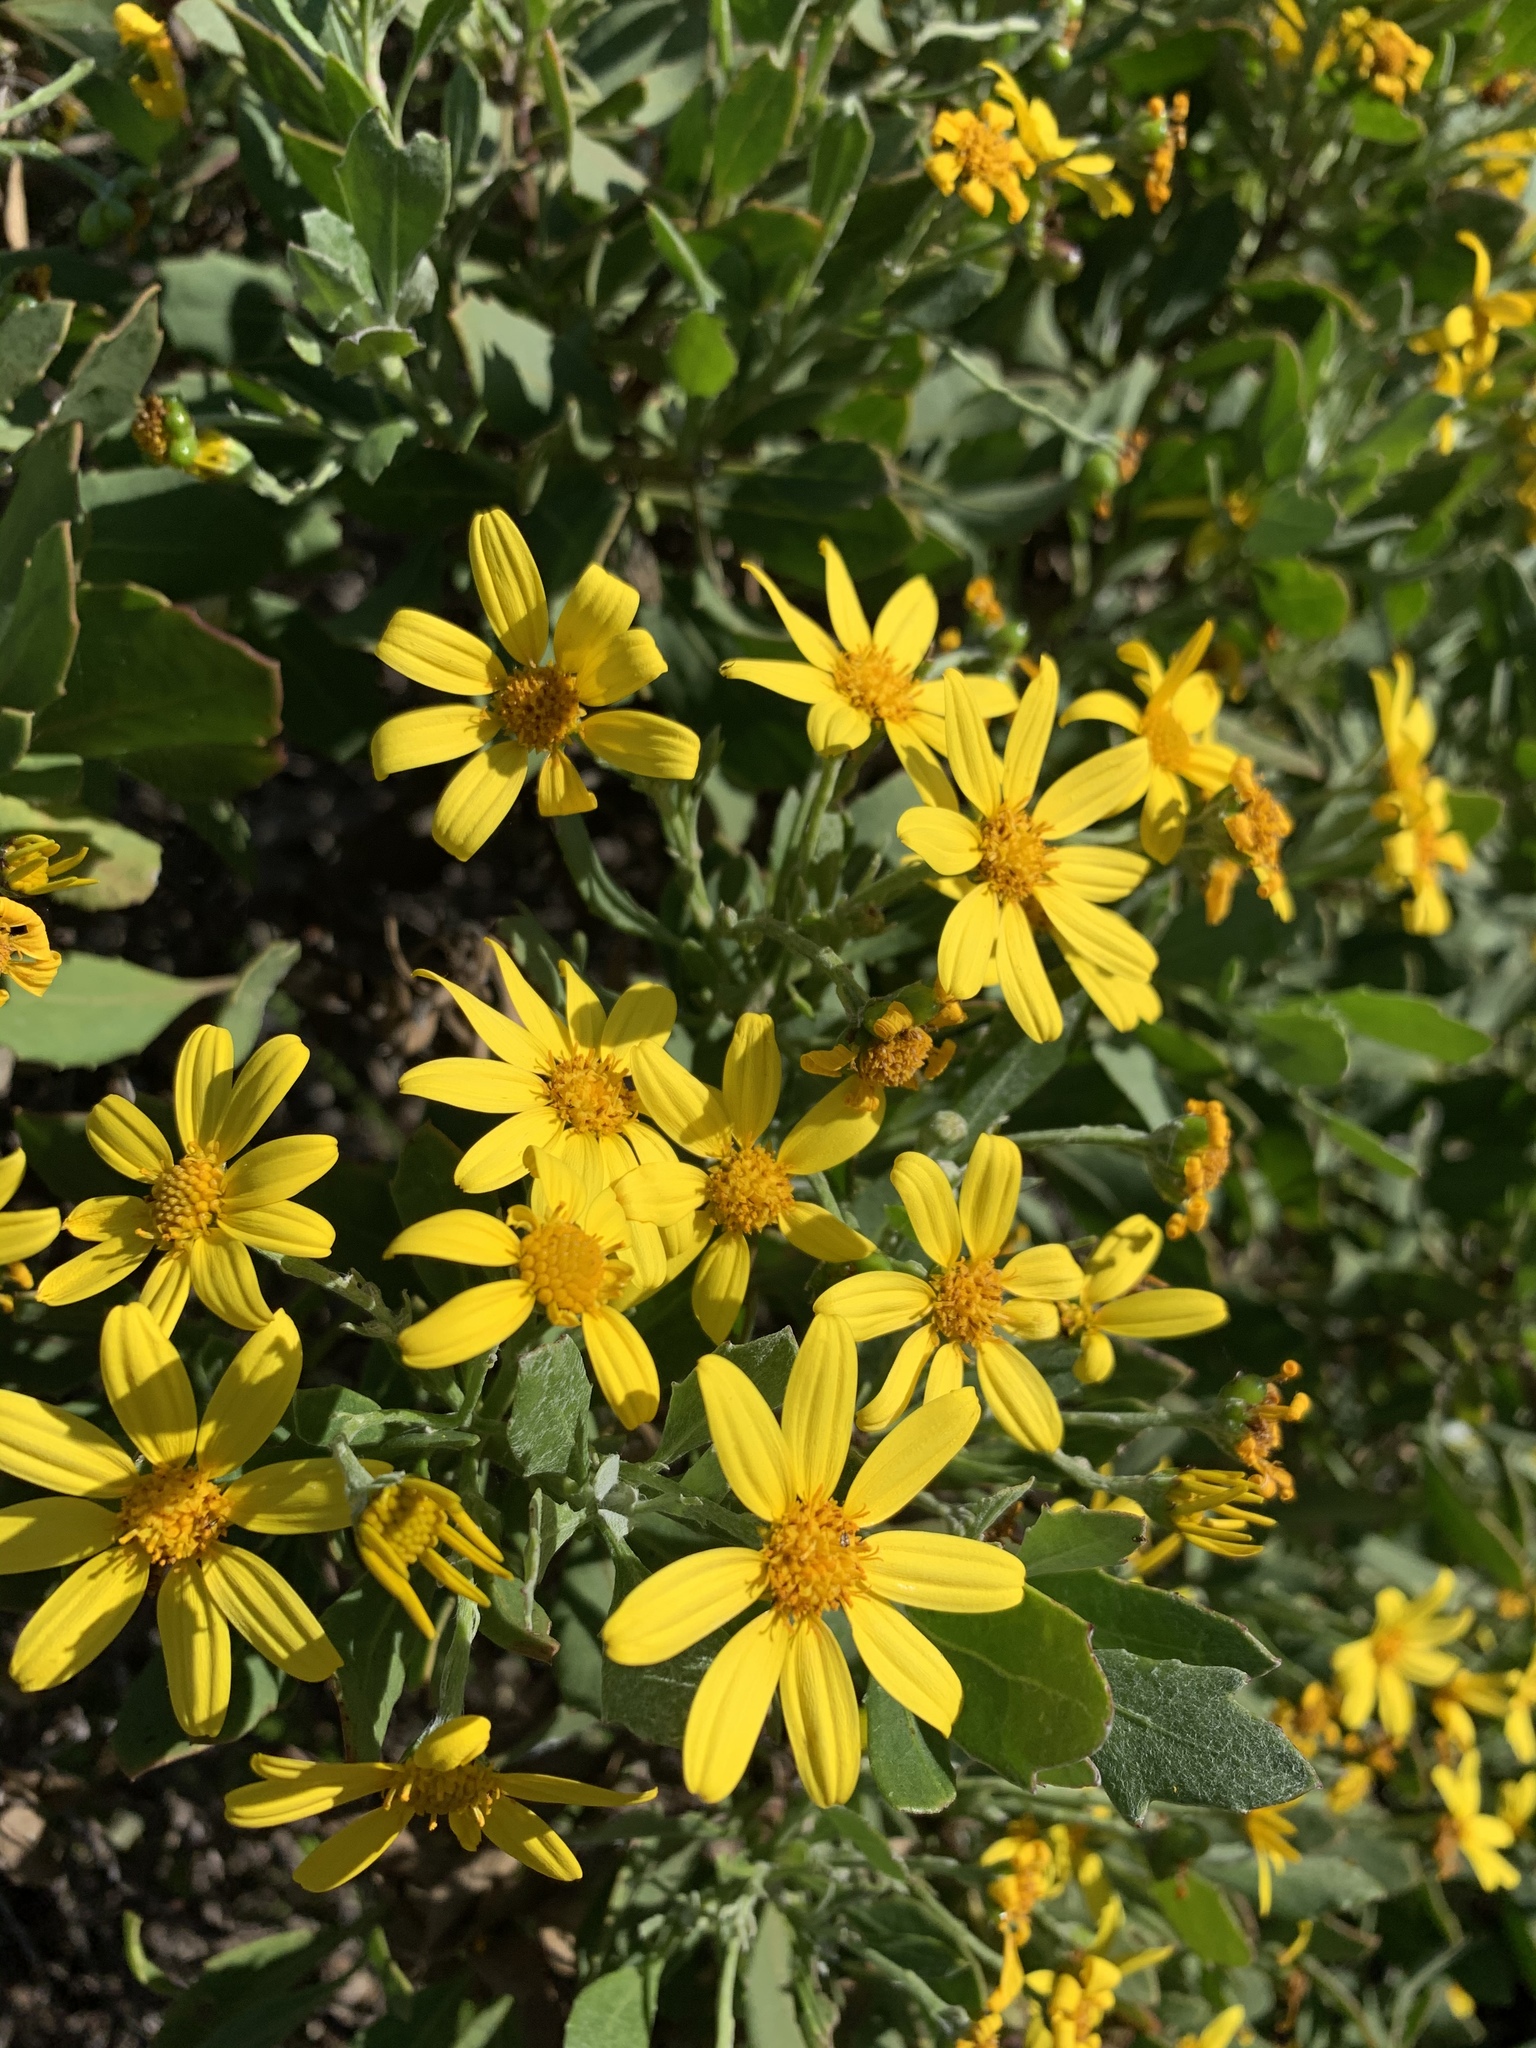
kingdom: Plantae
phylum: Tracheophyta
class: Magnoliopsida
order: Asterales
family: Asteraceae
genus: Osteospermum
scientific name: Osteospermum moniliferum
